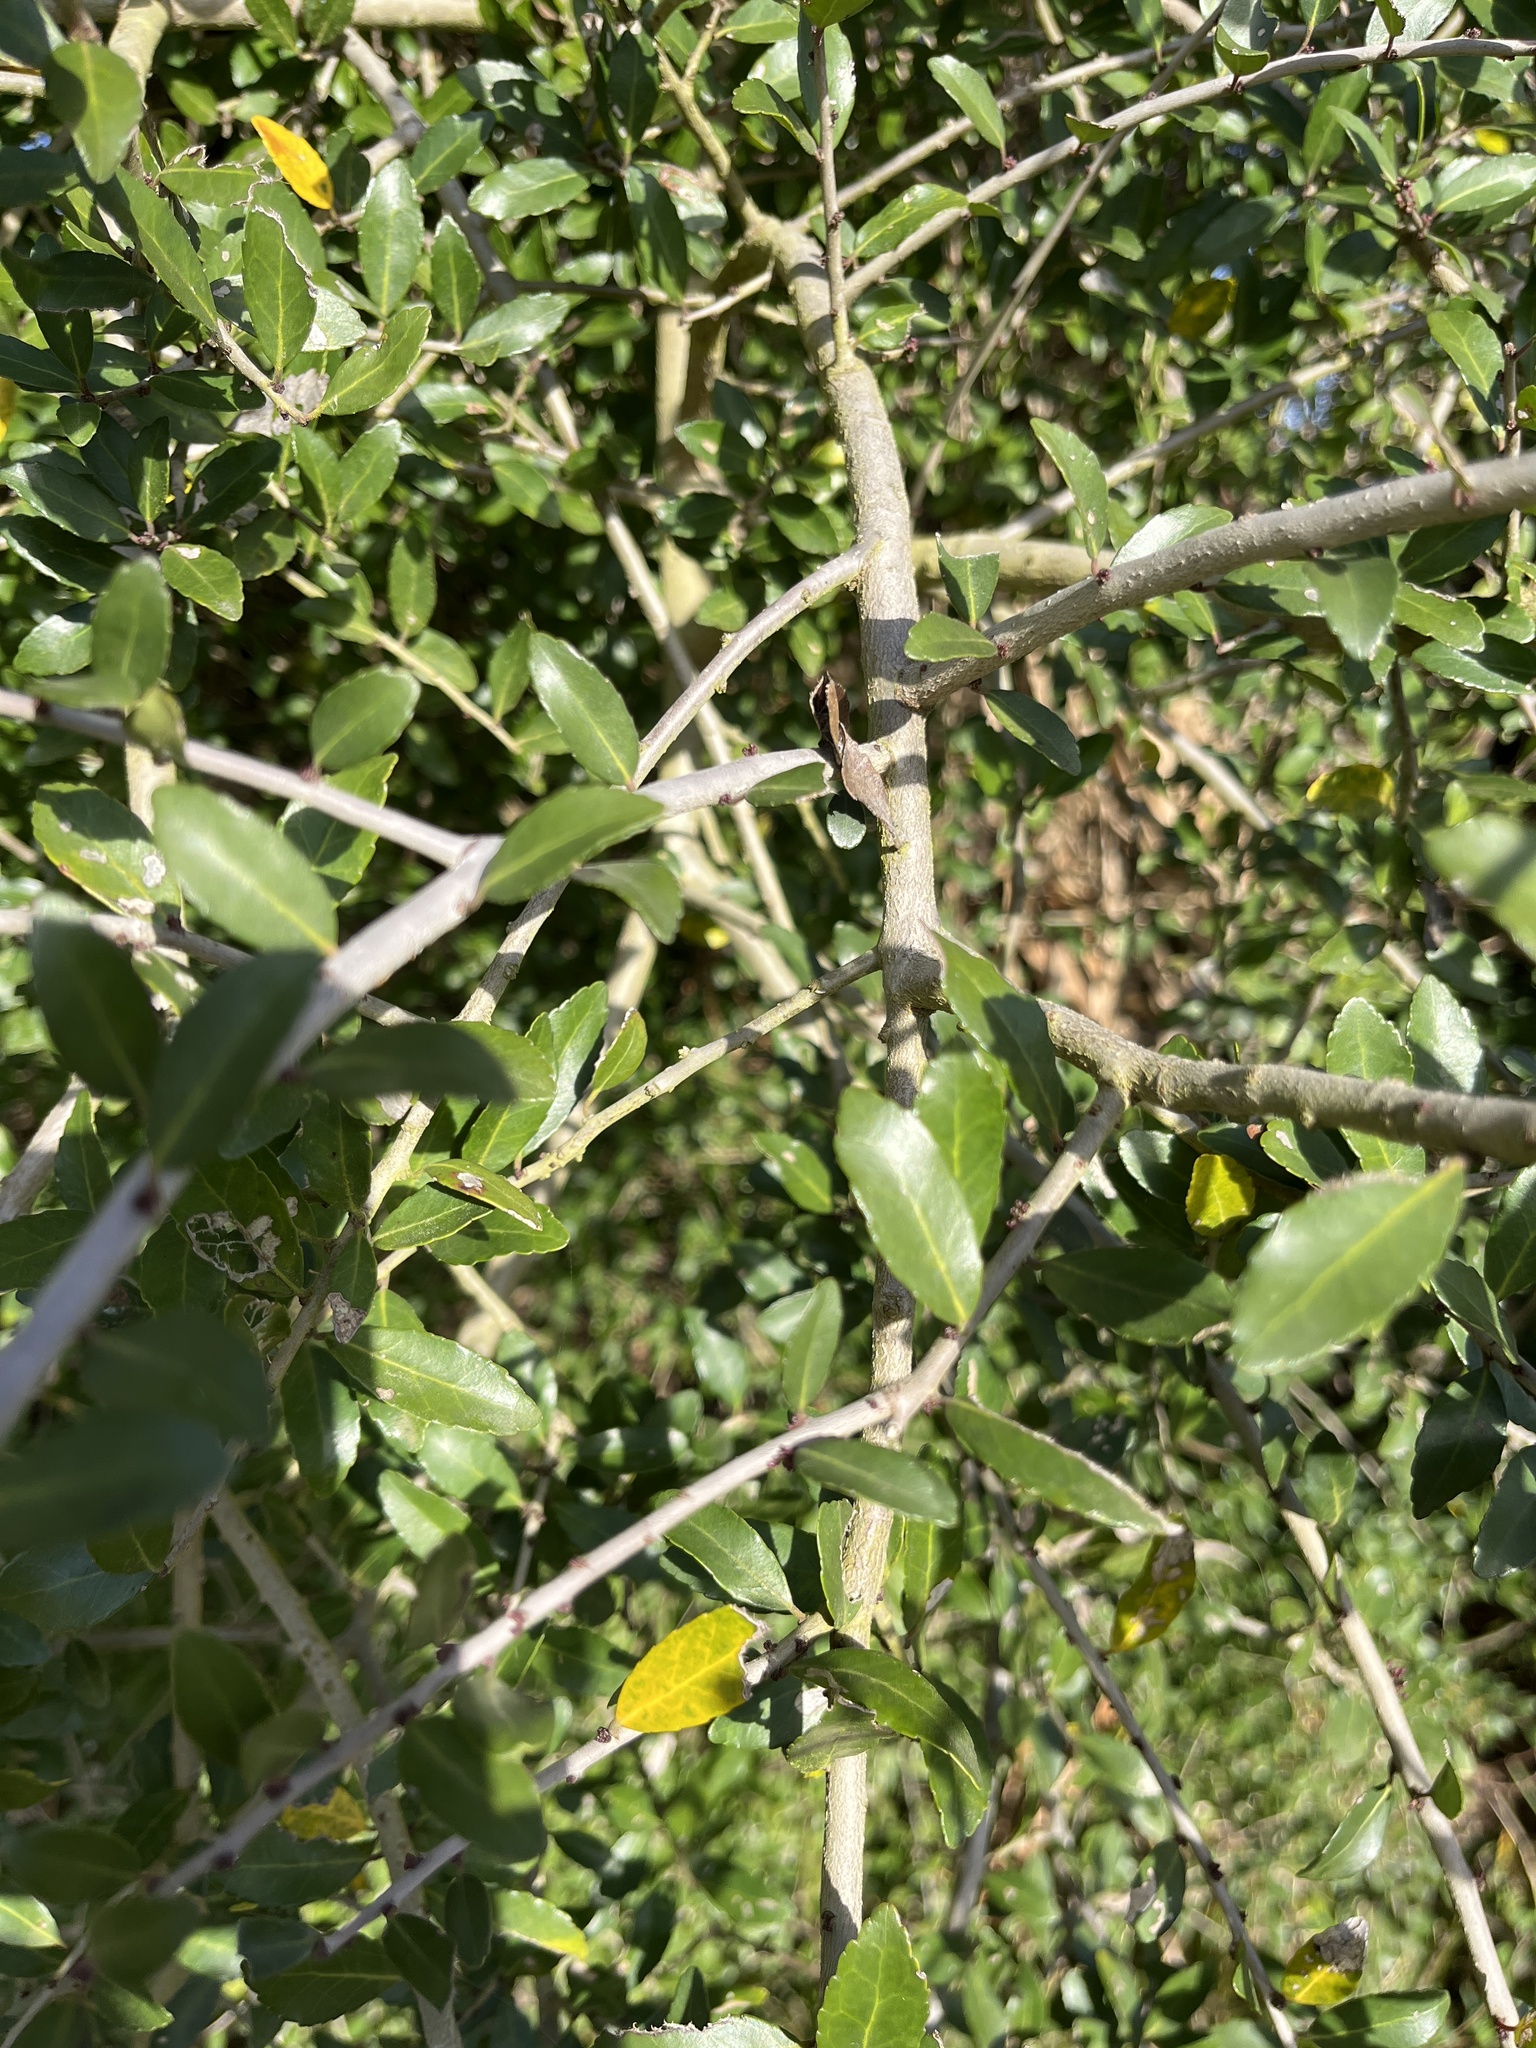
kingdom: Plantae
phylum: Tracheophyta
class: Magnoliopsida
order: Aquifoliales
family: Aquifoliaceae
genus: Ilex
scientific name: Ilex vomitoria
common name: Yaupon holly
